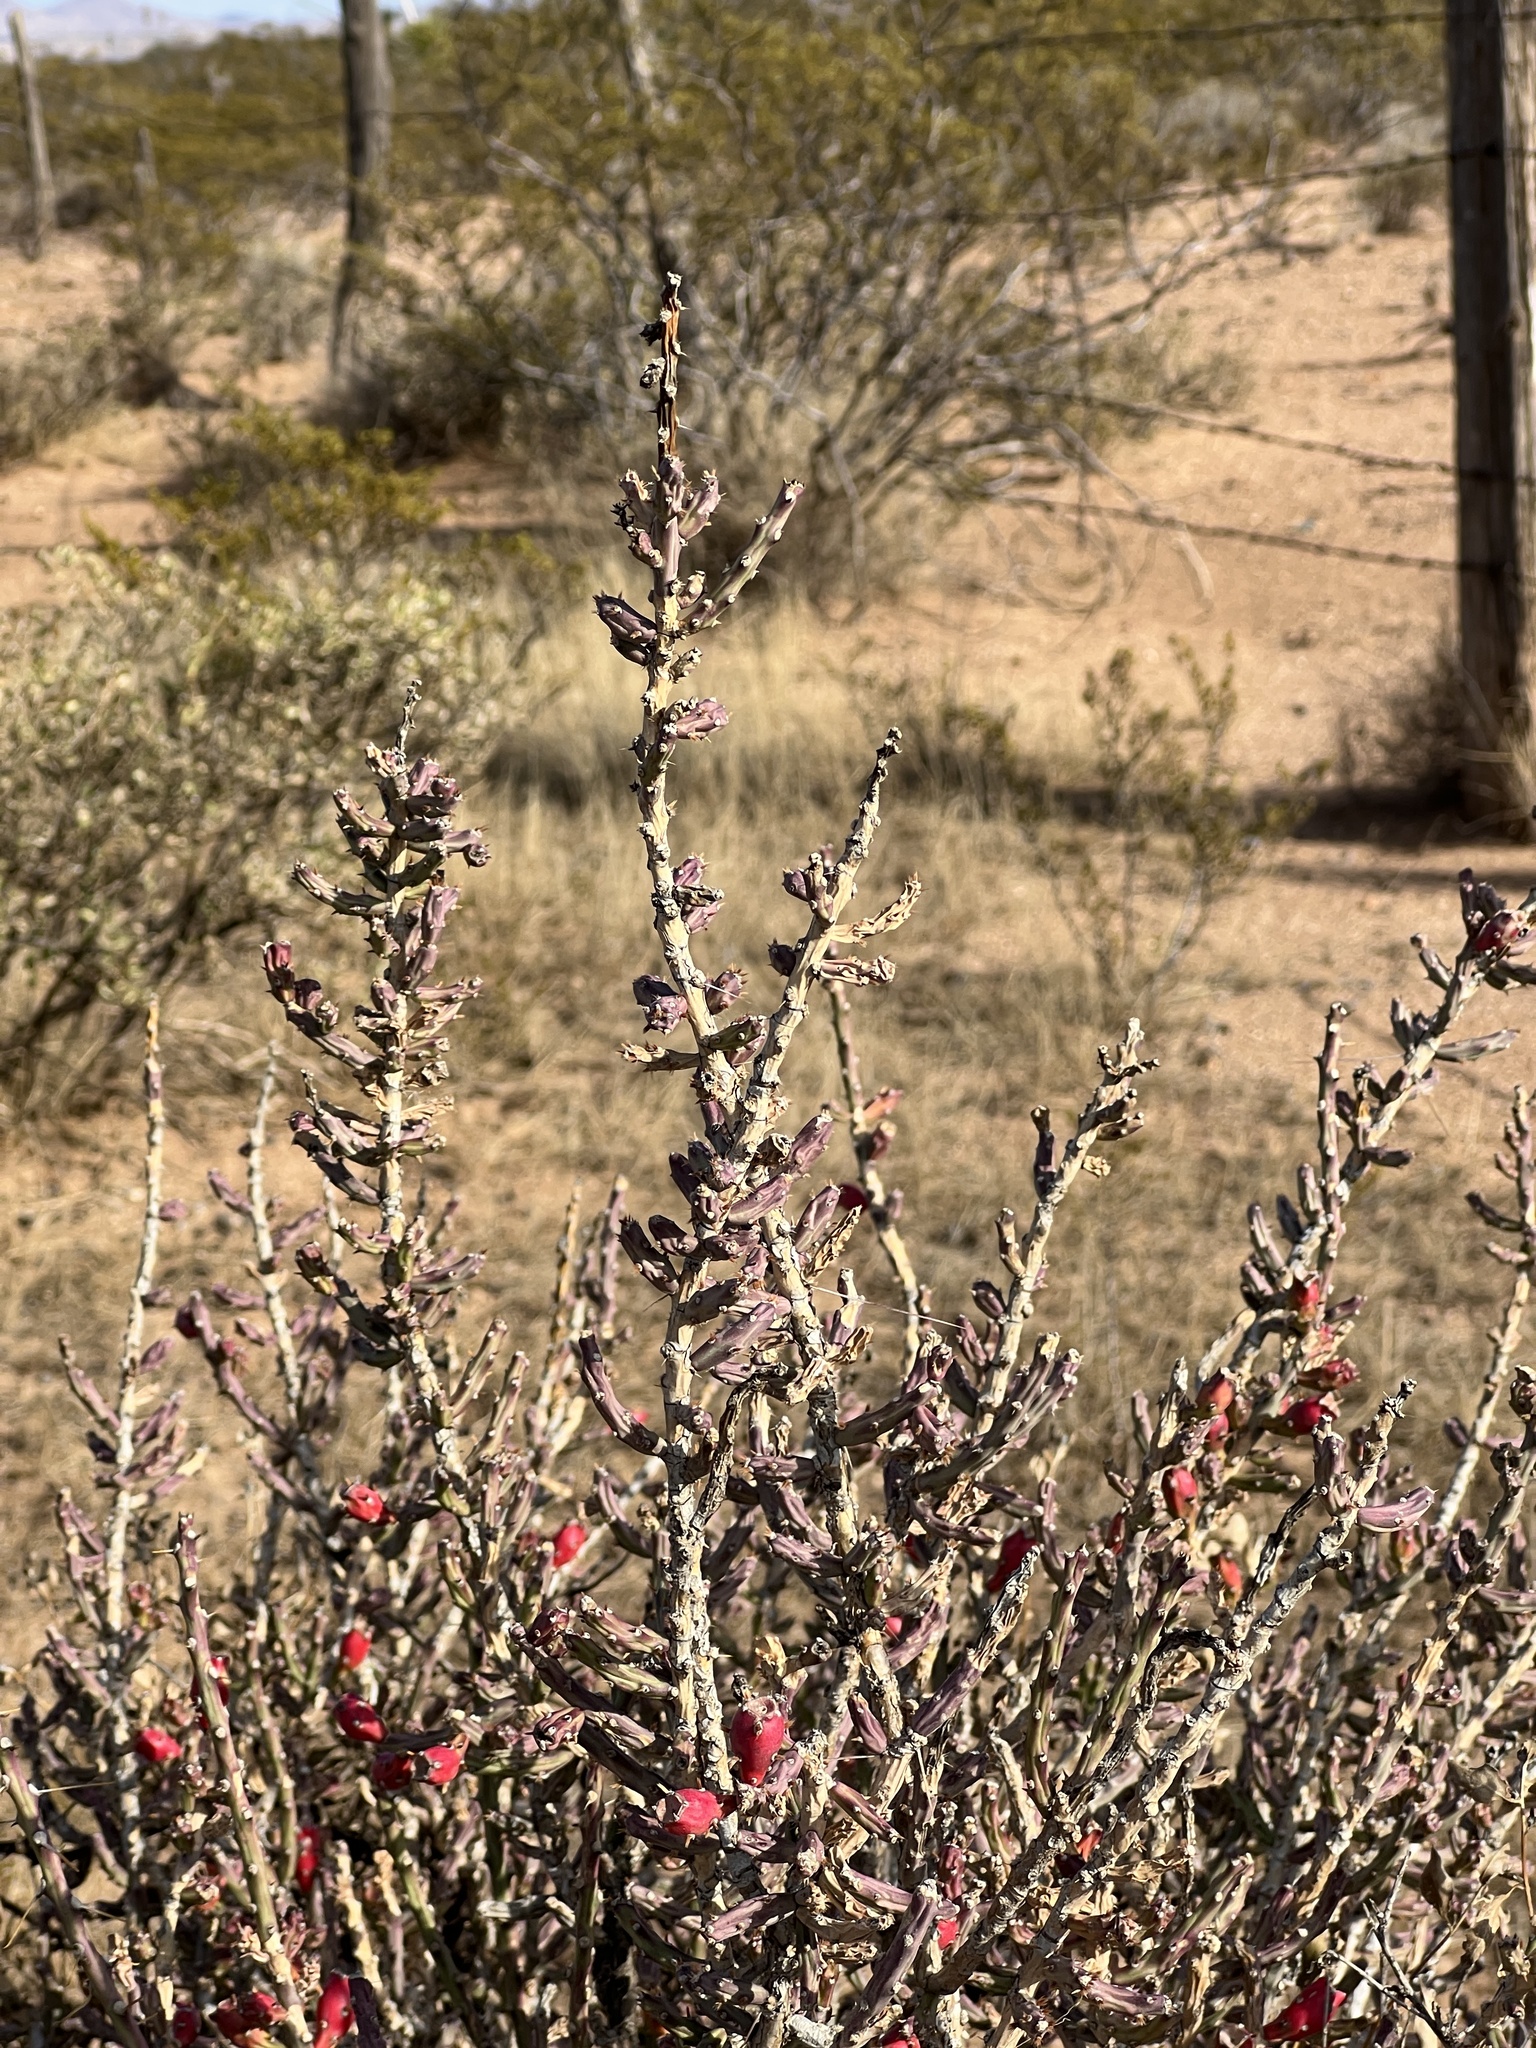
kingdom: Plantae
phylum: Tracheophyta
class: Magnoliopsida
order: Caryophyllales
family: Cactaceae
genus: Cylindropuntia
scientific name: Cylindropuntia leptocaulis
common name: Christmas cactus
